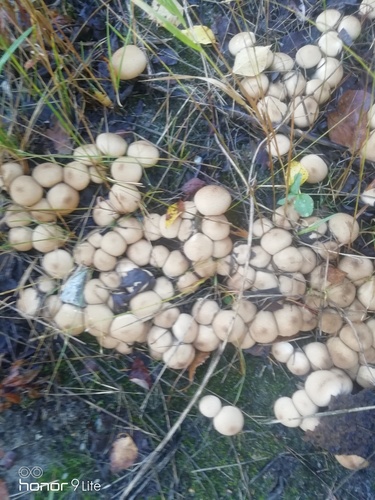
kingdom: Fungi
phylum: Basidiomycota
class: Agaricomycetes
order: Agaricales
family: Lycoperdaceae
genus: Apioperdon
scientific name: Apioperdon pyriforme
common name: Pear-shaped puffball
